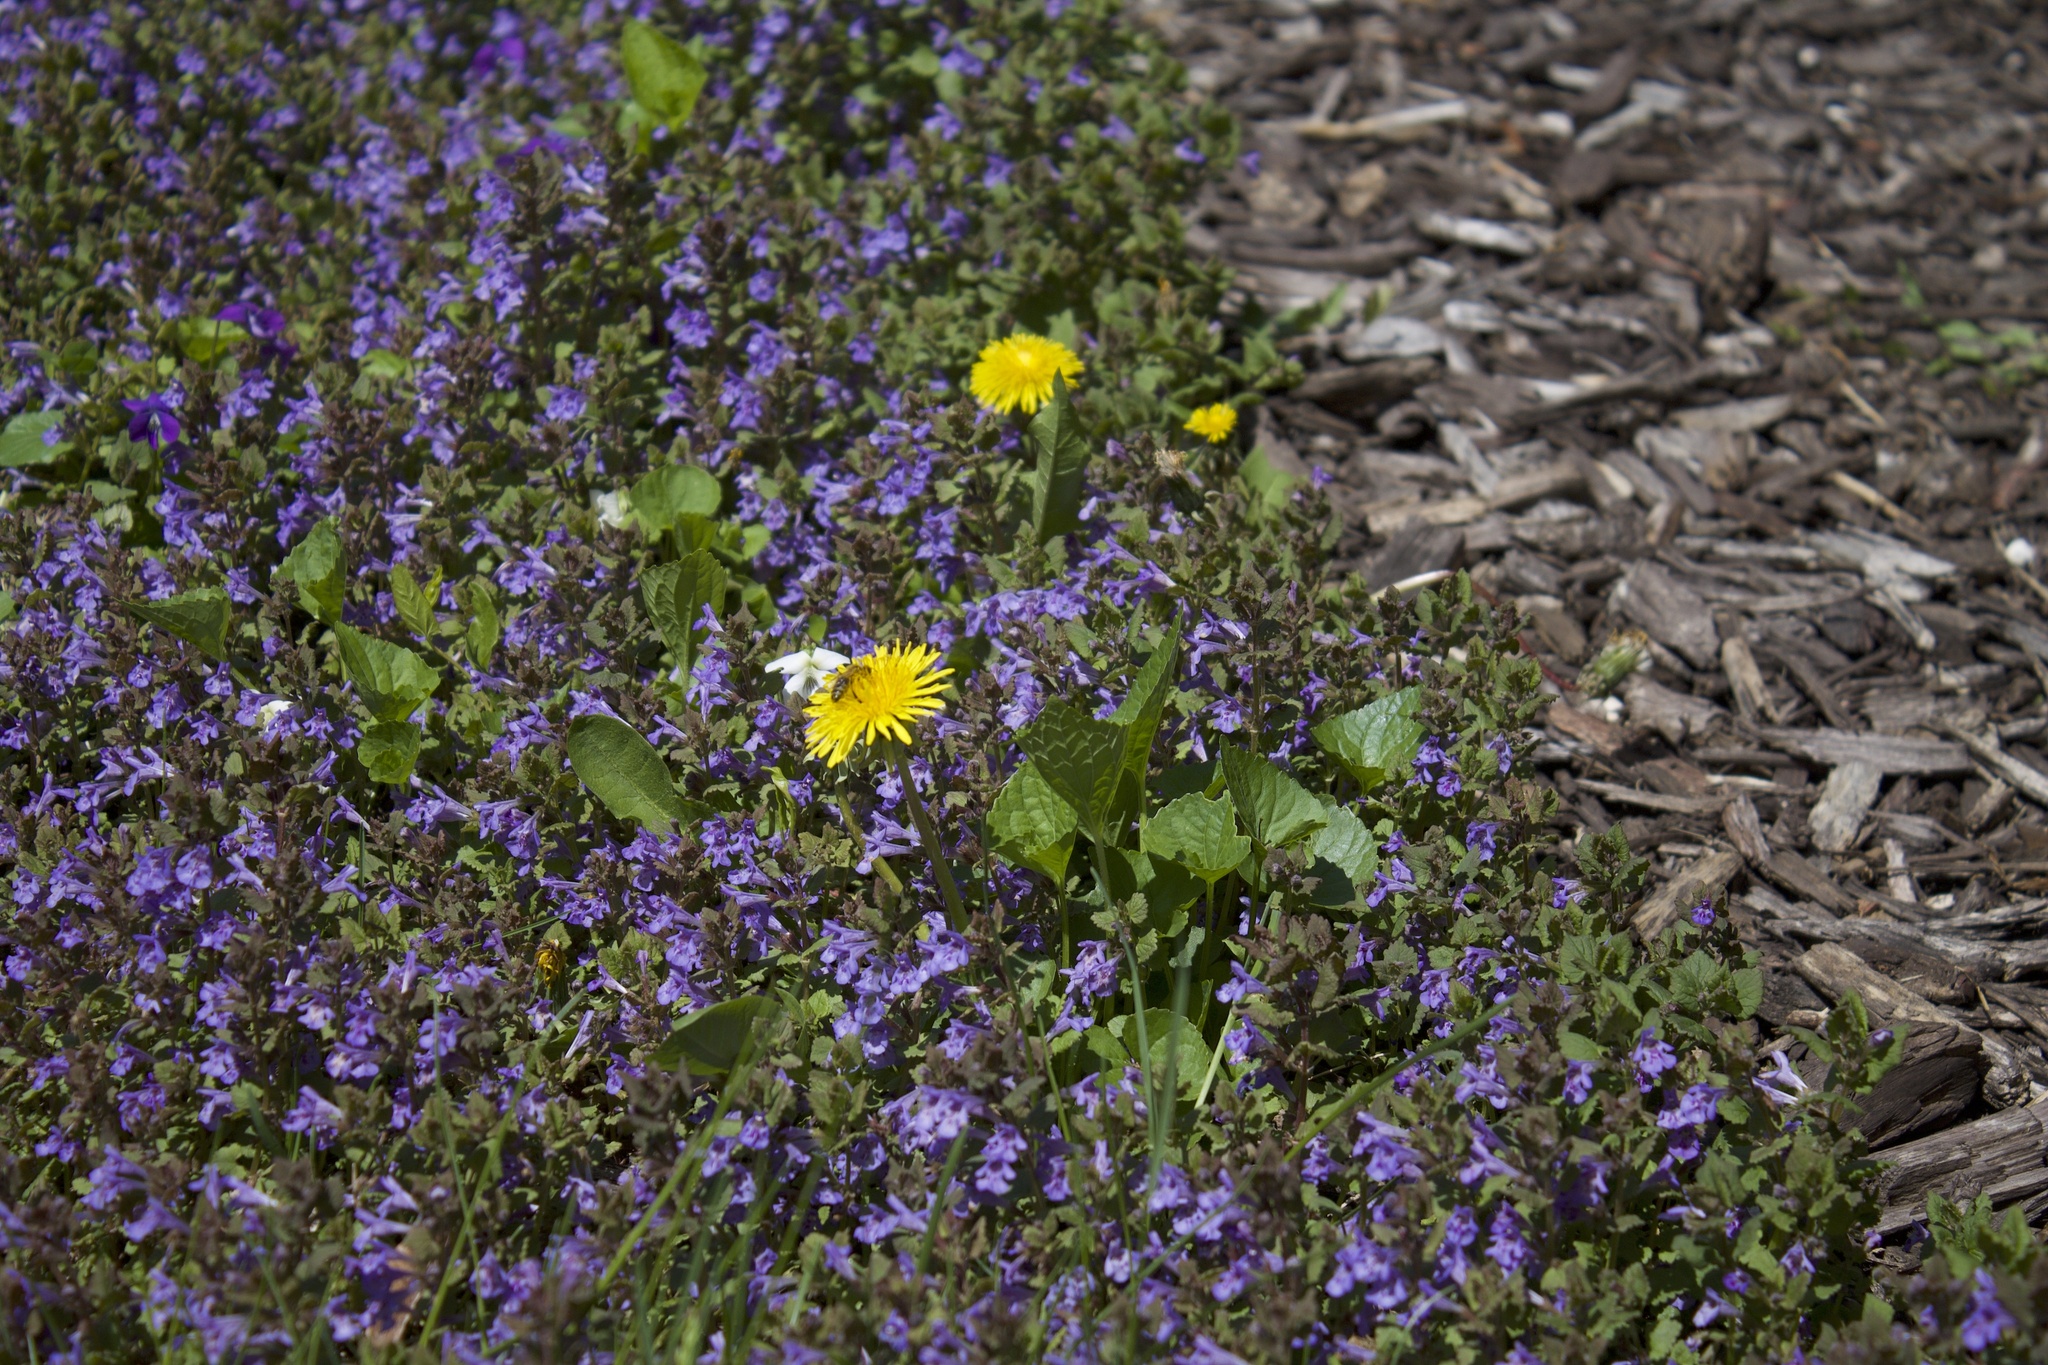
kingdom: Animalia
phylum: Arthropoda
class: Insecta
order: Hymenoptera
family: Apidae
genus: Apis
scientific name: Apis mellifera
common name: Honey bee
